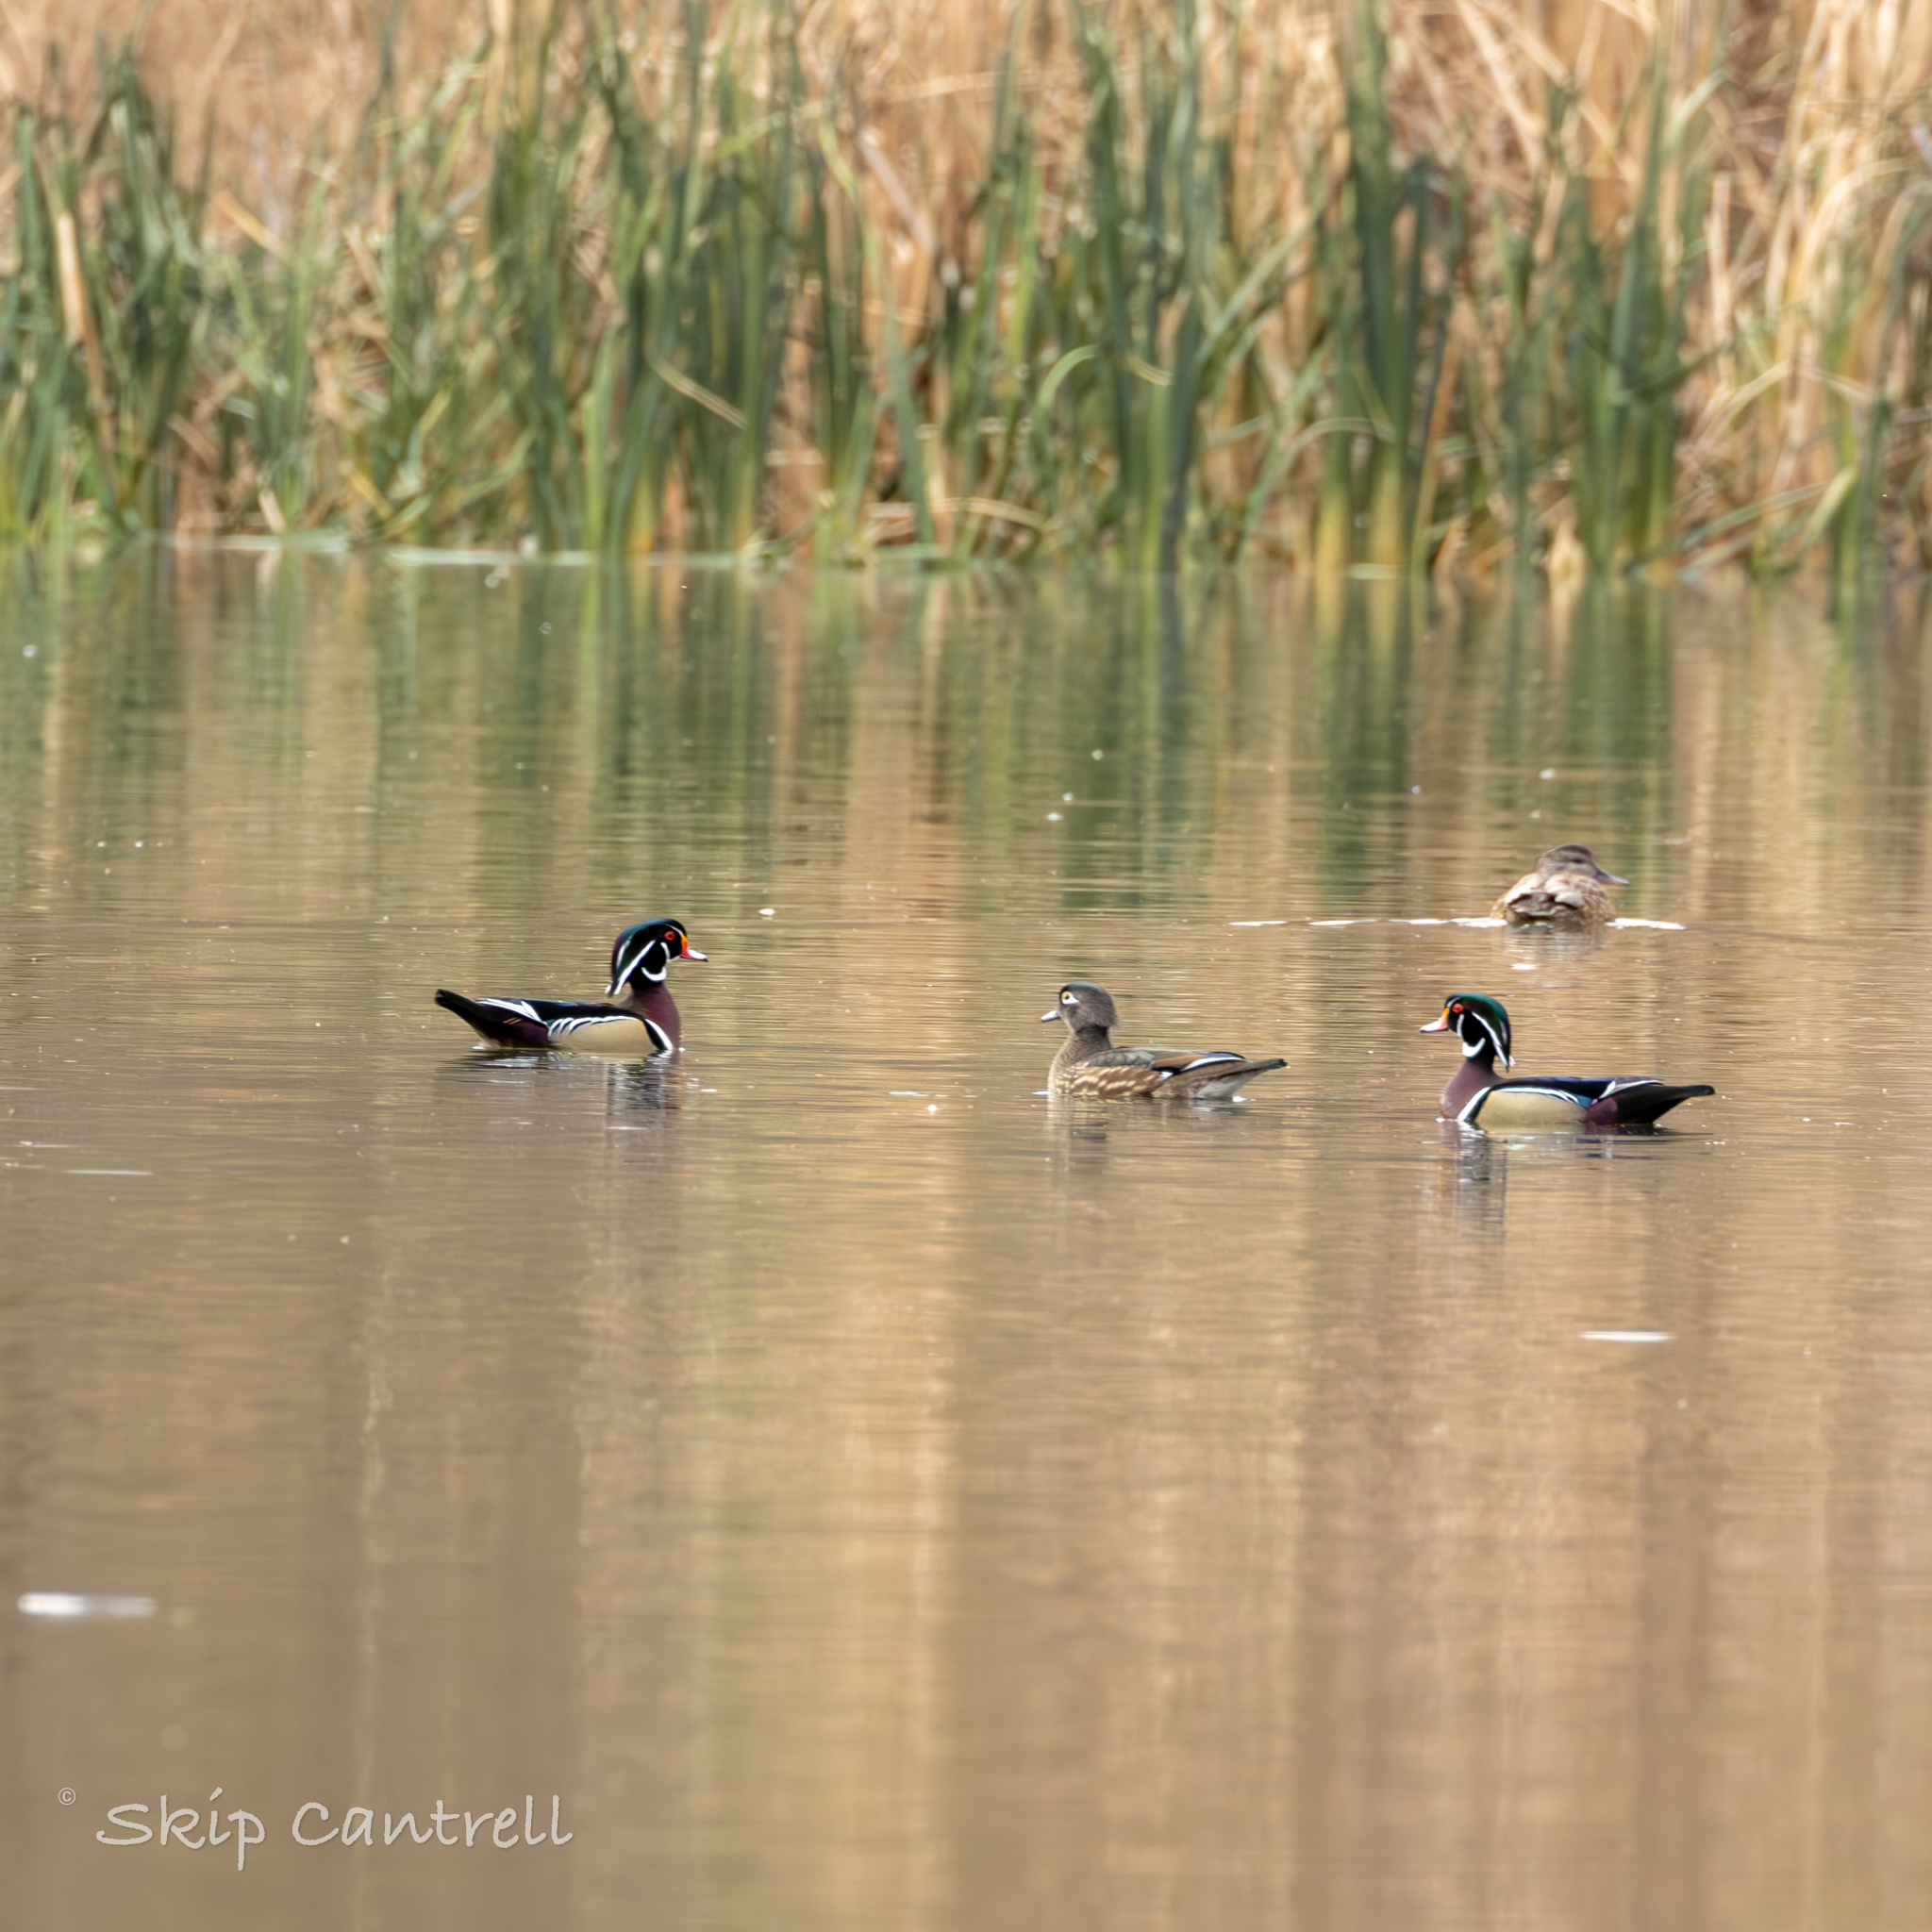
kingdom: Animalia
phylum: Chordata
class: Aves
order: Anseriformes
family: Anatidae
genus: Aix
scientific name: Aix sponsa
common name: Wood duck
